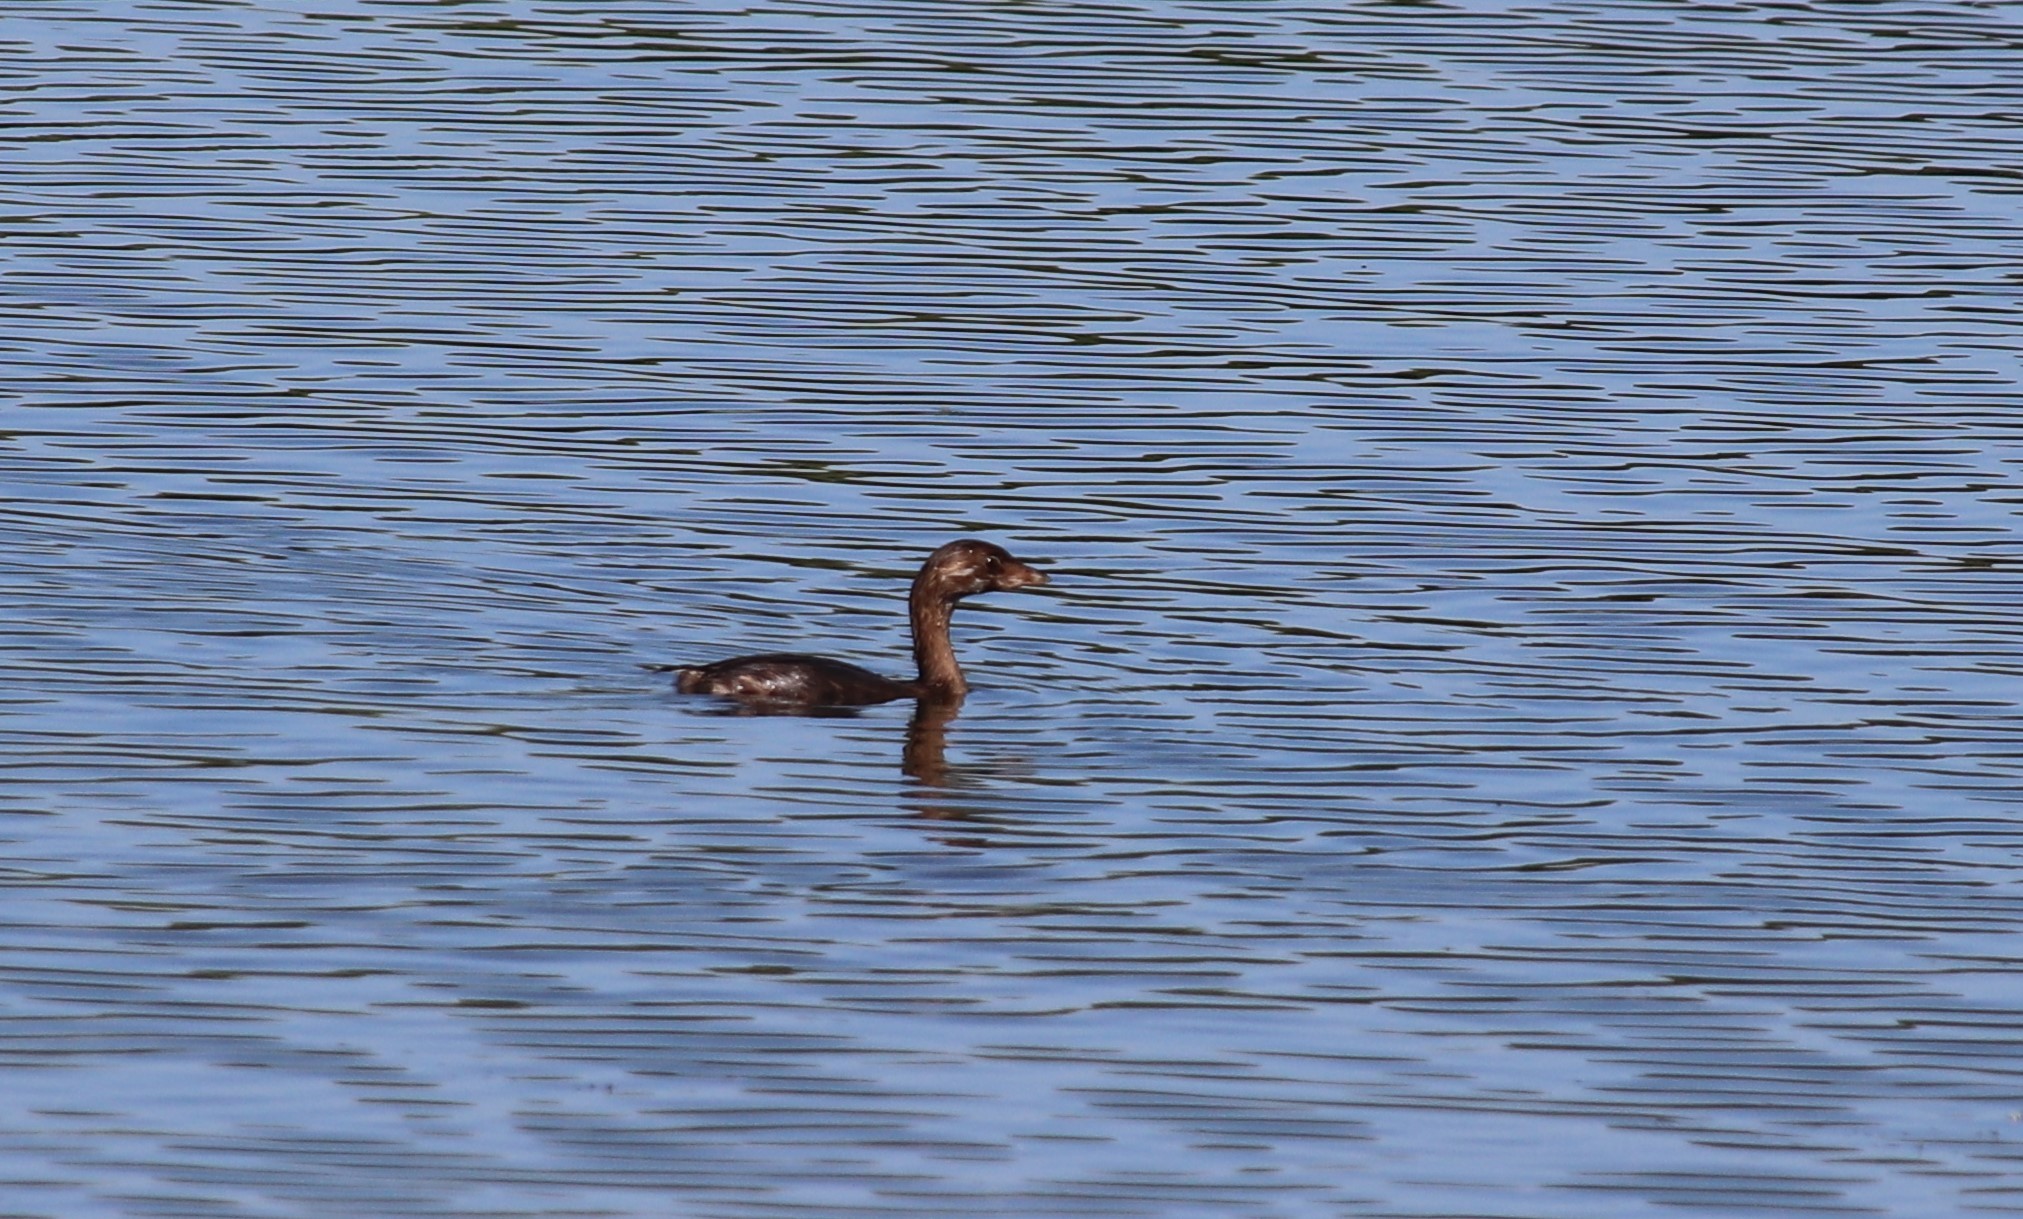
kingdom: Animalia
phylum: Chordata
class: Aves
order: Podicipediformes
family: Podicipedidae
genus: Podilymbus
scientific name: Podilymbus podiceps
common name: Pied-billed grebe
